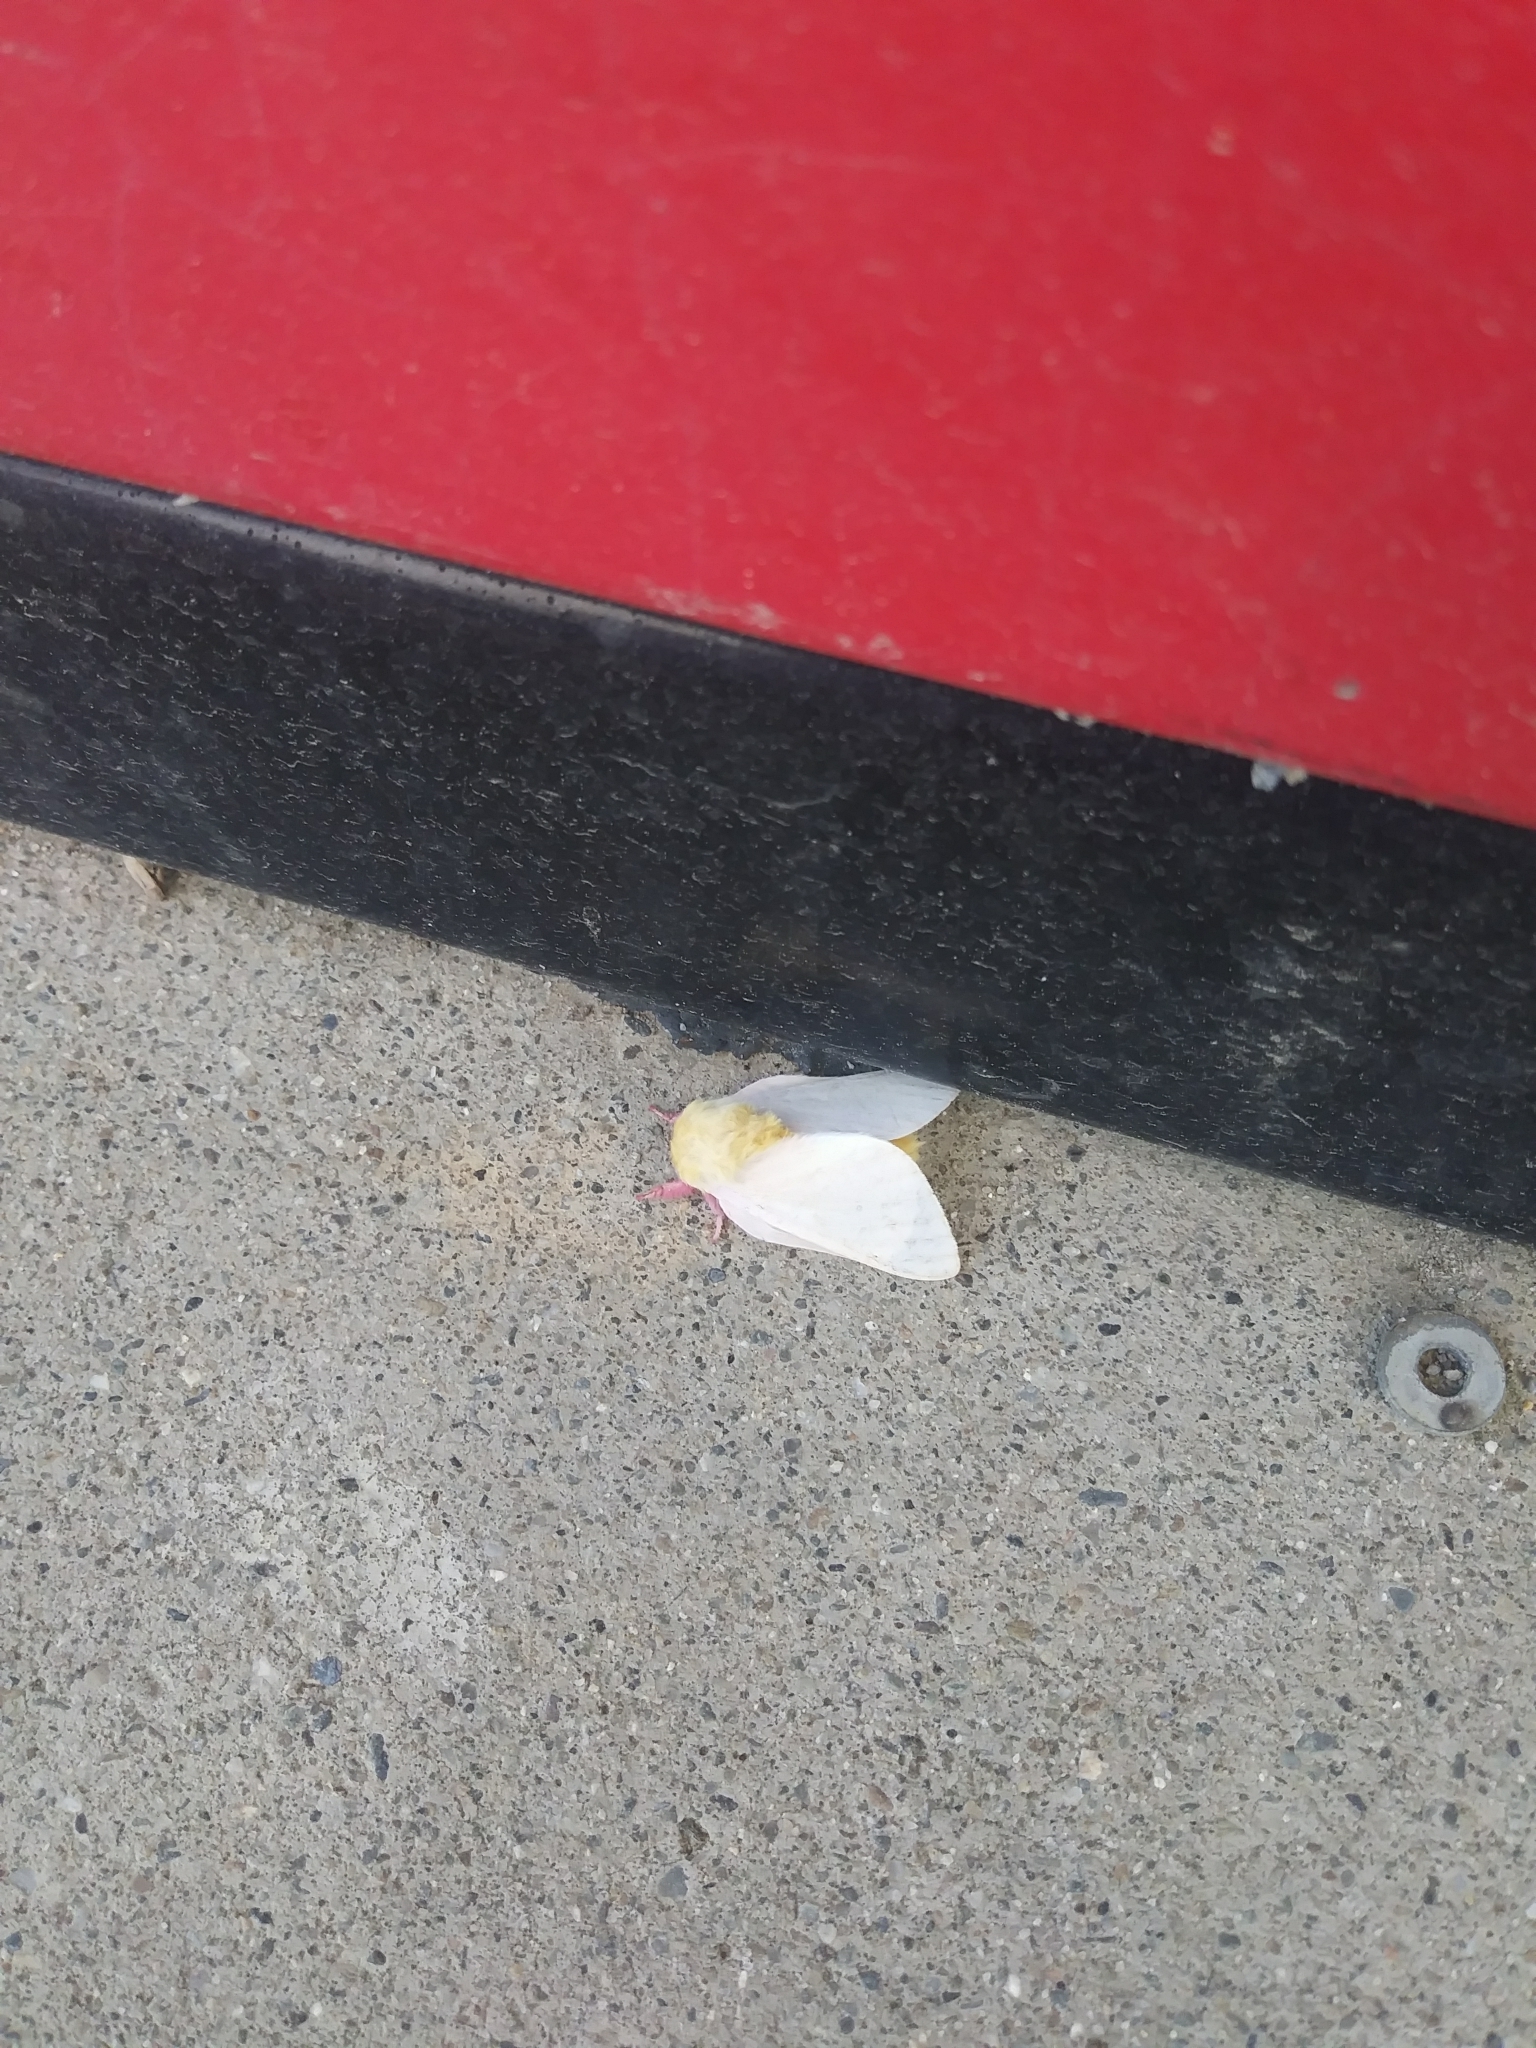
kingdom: Animalia
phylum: Arthropoda
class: Insecta
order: Lepidoptera
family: Saturniidae
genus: Dryocampa
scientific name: Dryocampa rubicunda
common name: Rosy maple moth
